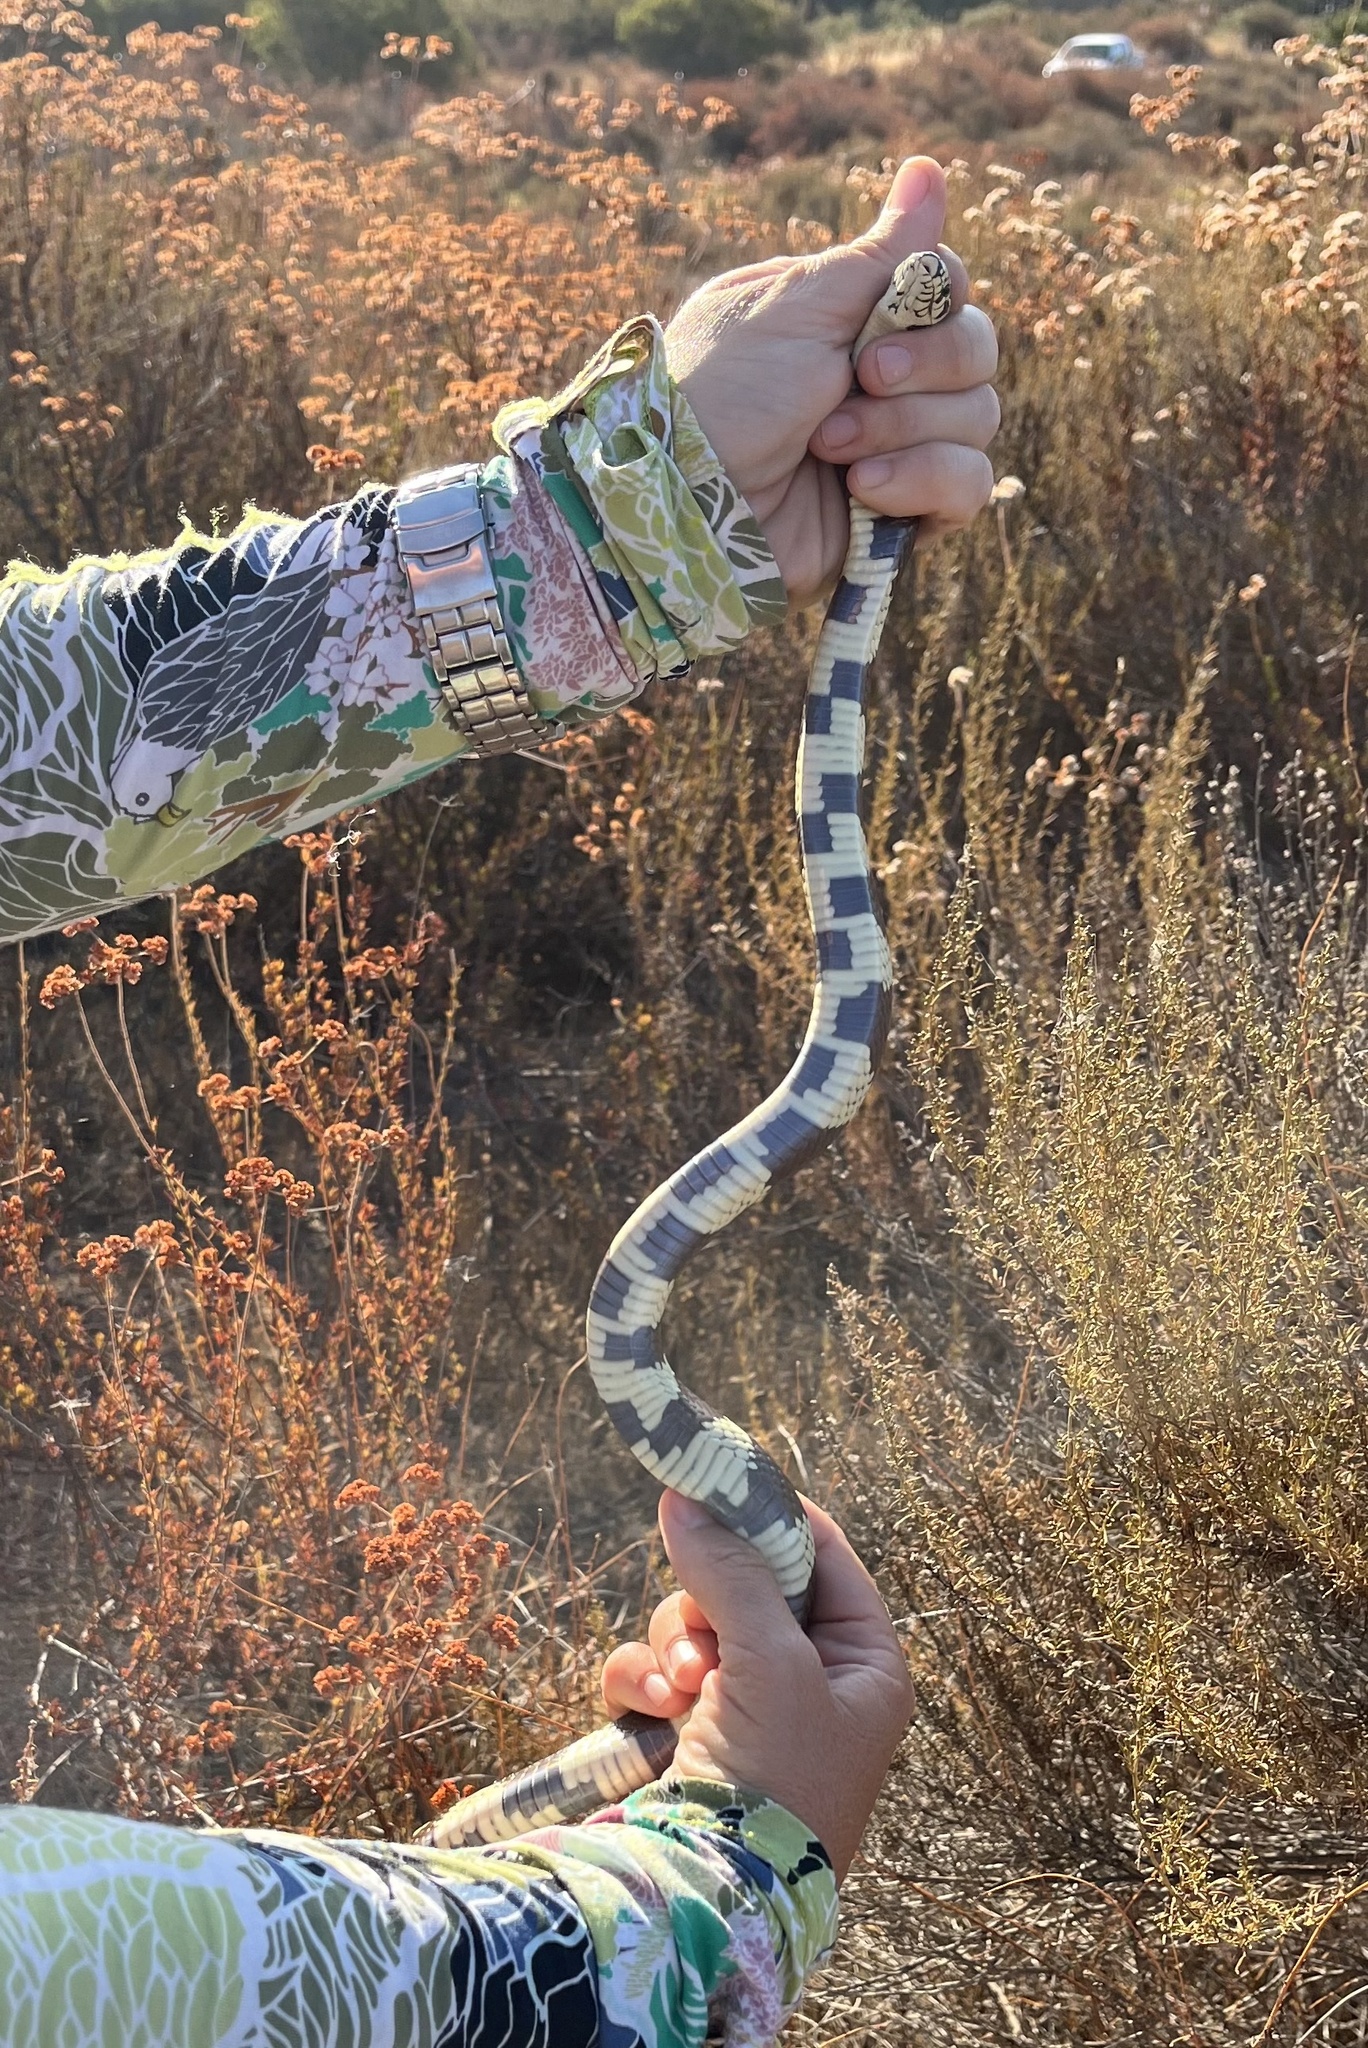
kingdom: Animalia
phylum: Chordata
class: Squamata
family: Colubridae
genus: Lampropeltis
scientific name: Lampropeltis californiae
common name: California kingsnake
